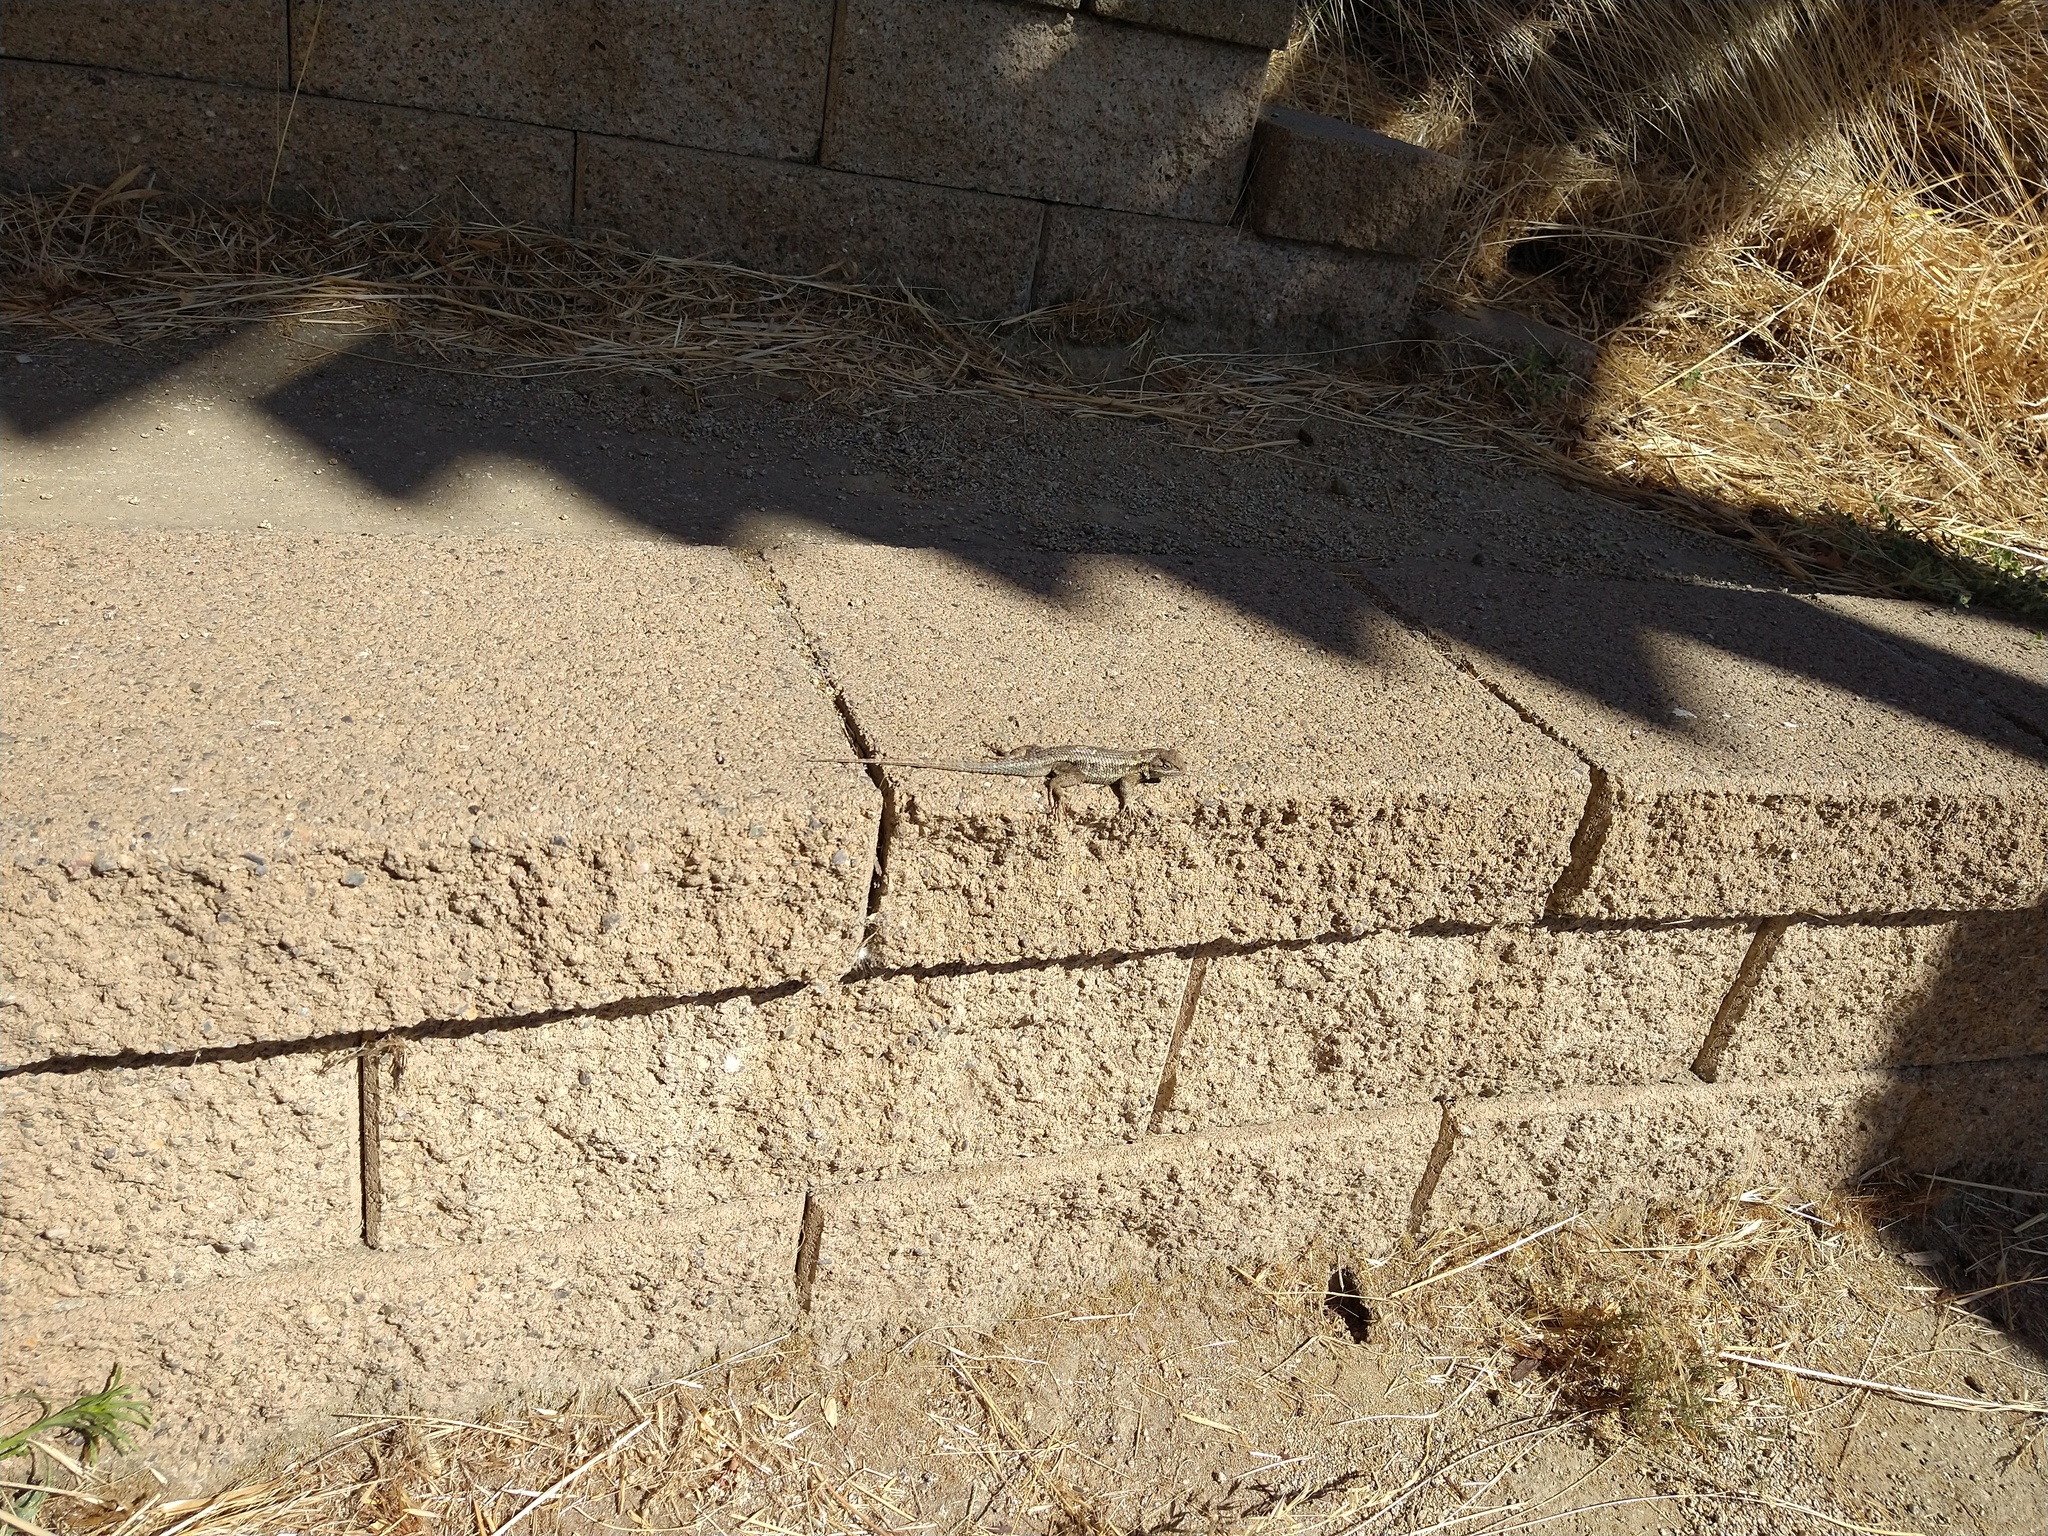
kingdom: Animalia
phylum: Chordata
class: Squamata
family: Phrynosomatidae
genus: Sceloporus
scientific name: Sceloporus occidentalis
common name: Western fence lizard
